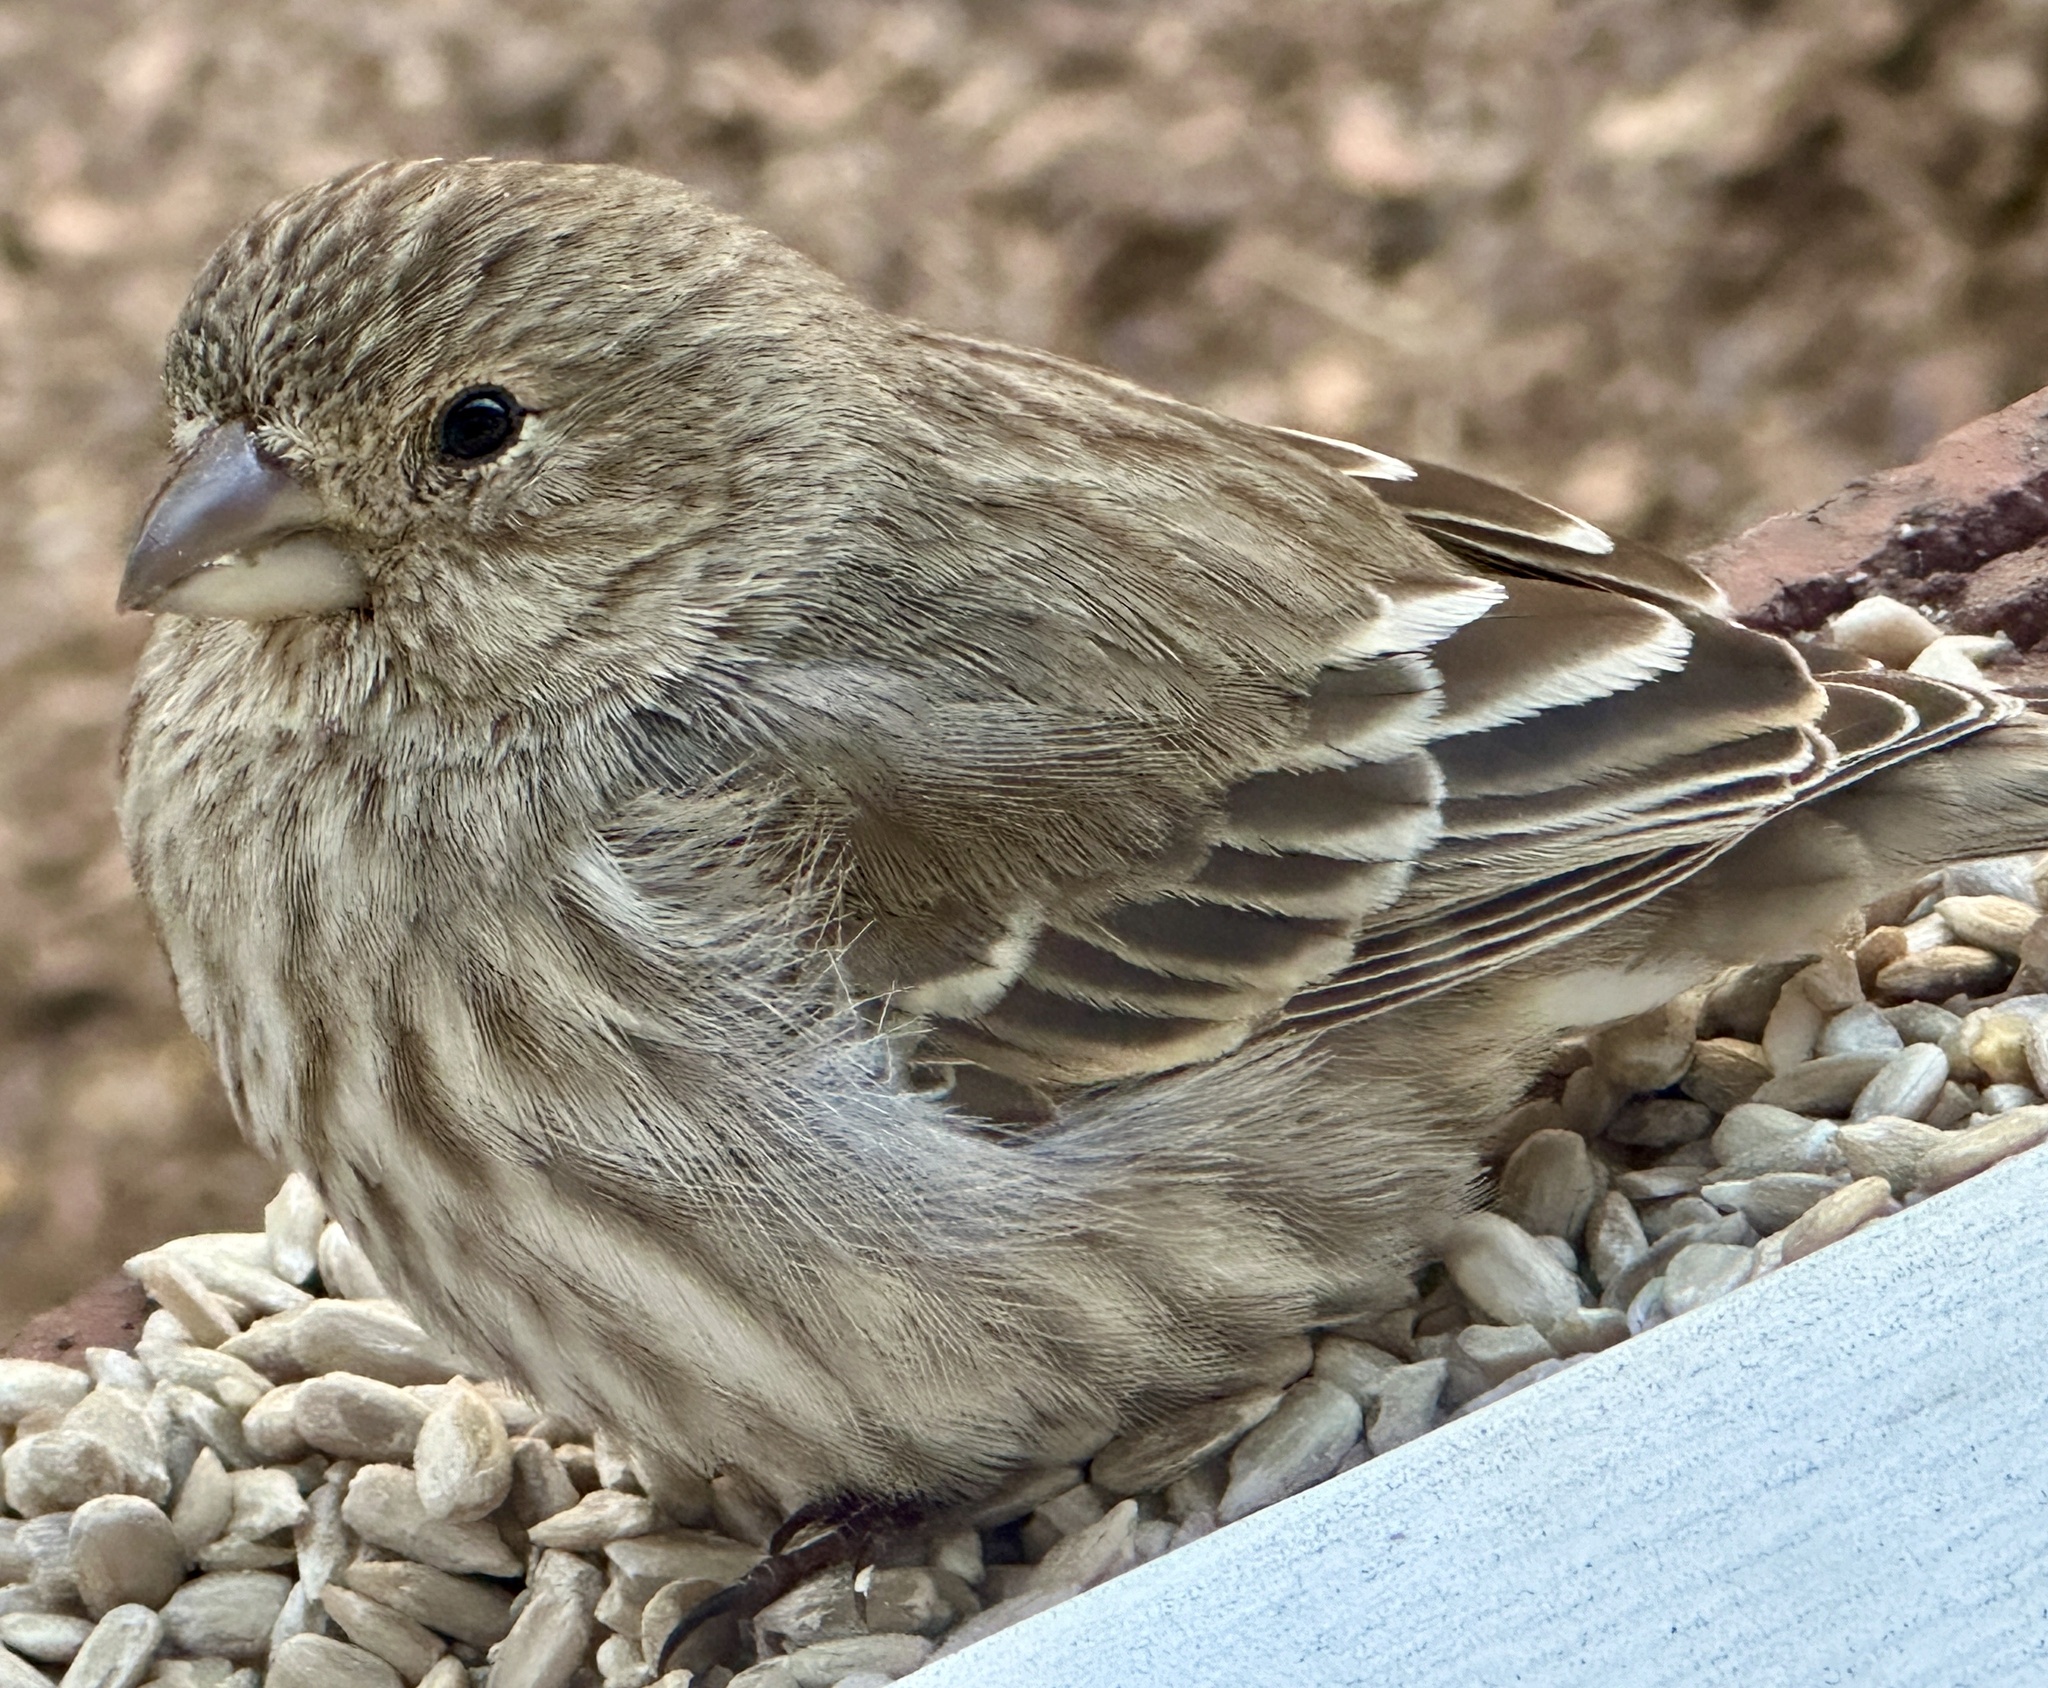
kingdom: Animalia
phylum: Chordata
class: Aves
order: Passeriformes
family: Fringillidae
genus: Haemorhous
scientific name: Haemorhous mexicanus
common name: House finch
